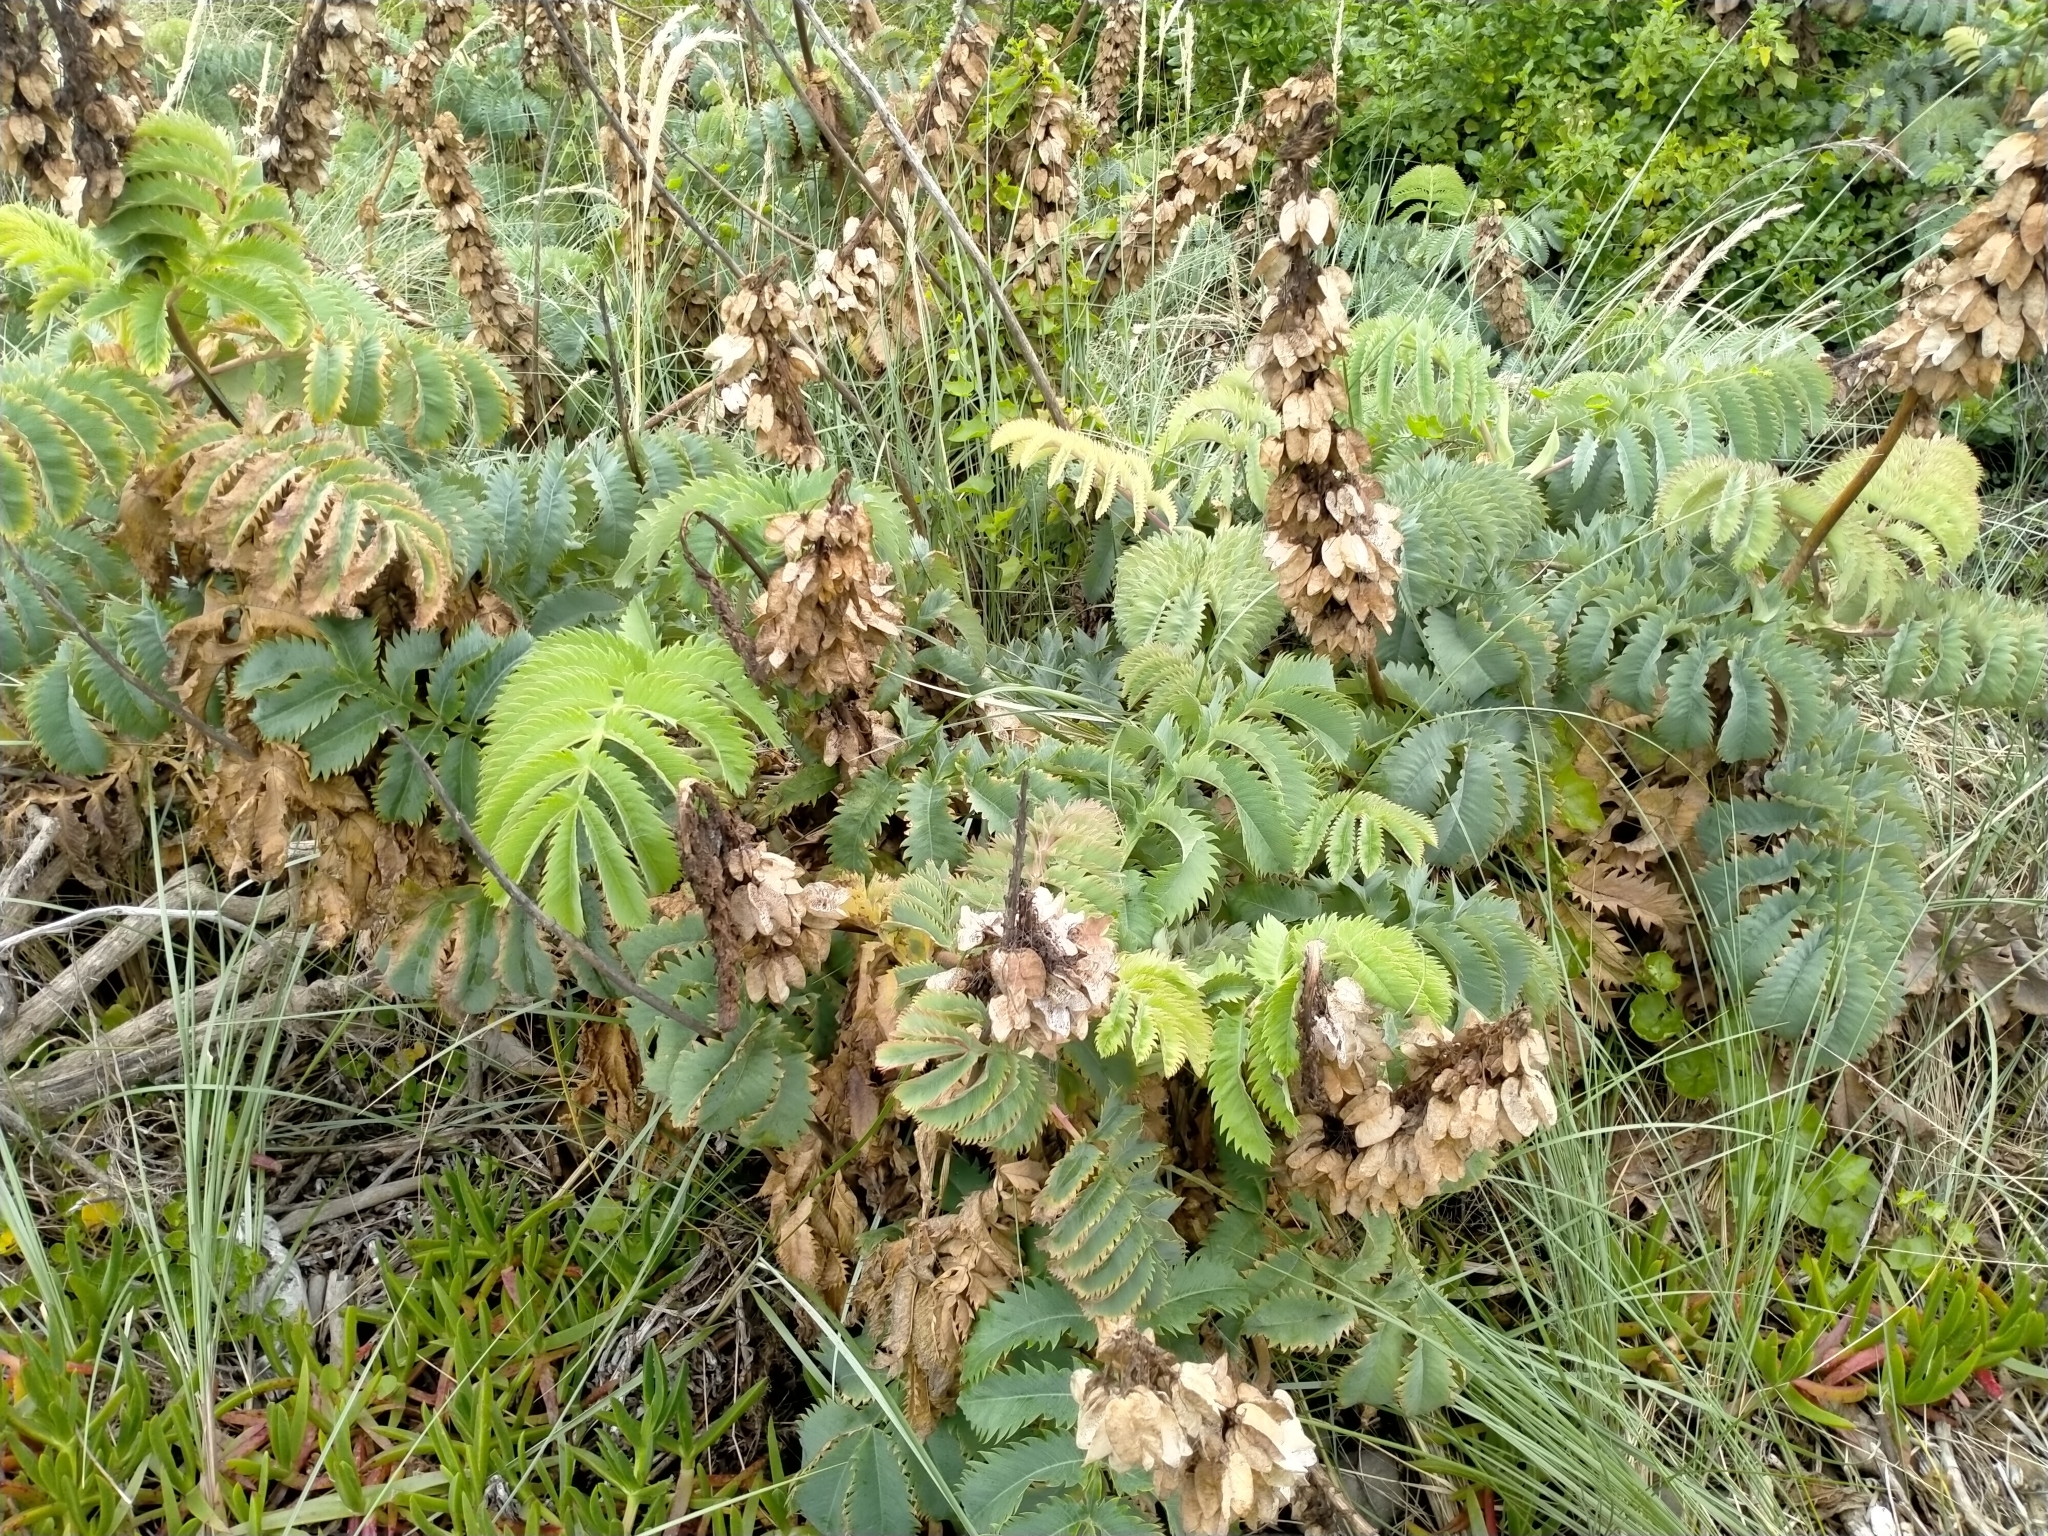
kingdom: Plantae
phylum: Tracheophyta
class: Magnoliopsida
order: Geraniales
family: Melianthaceae
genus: Melianthus
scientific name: Melianthus major
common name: Honey-flower
